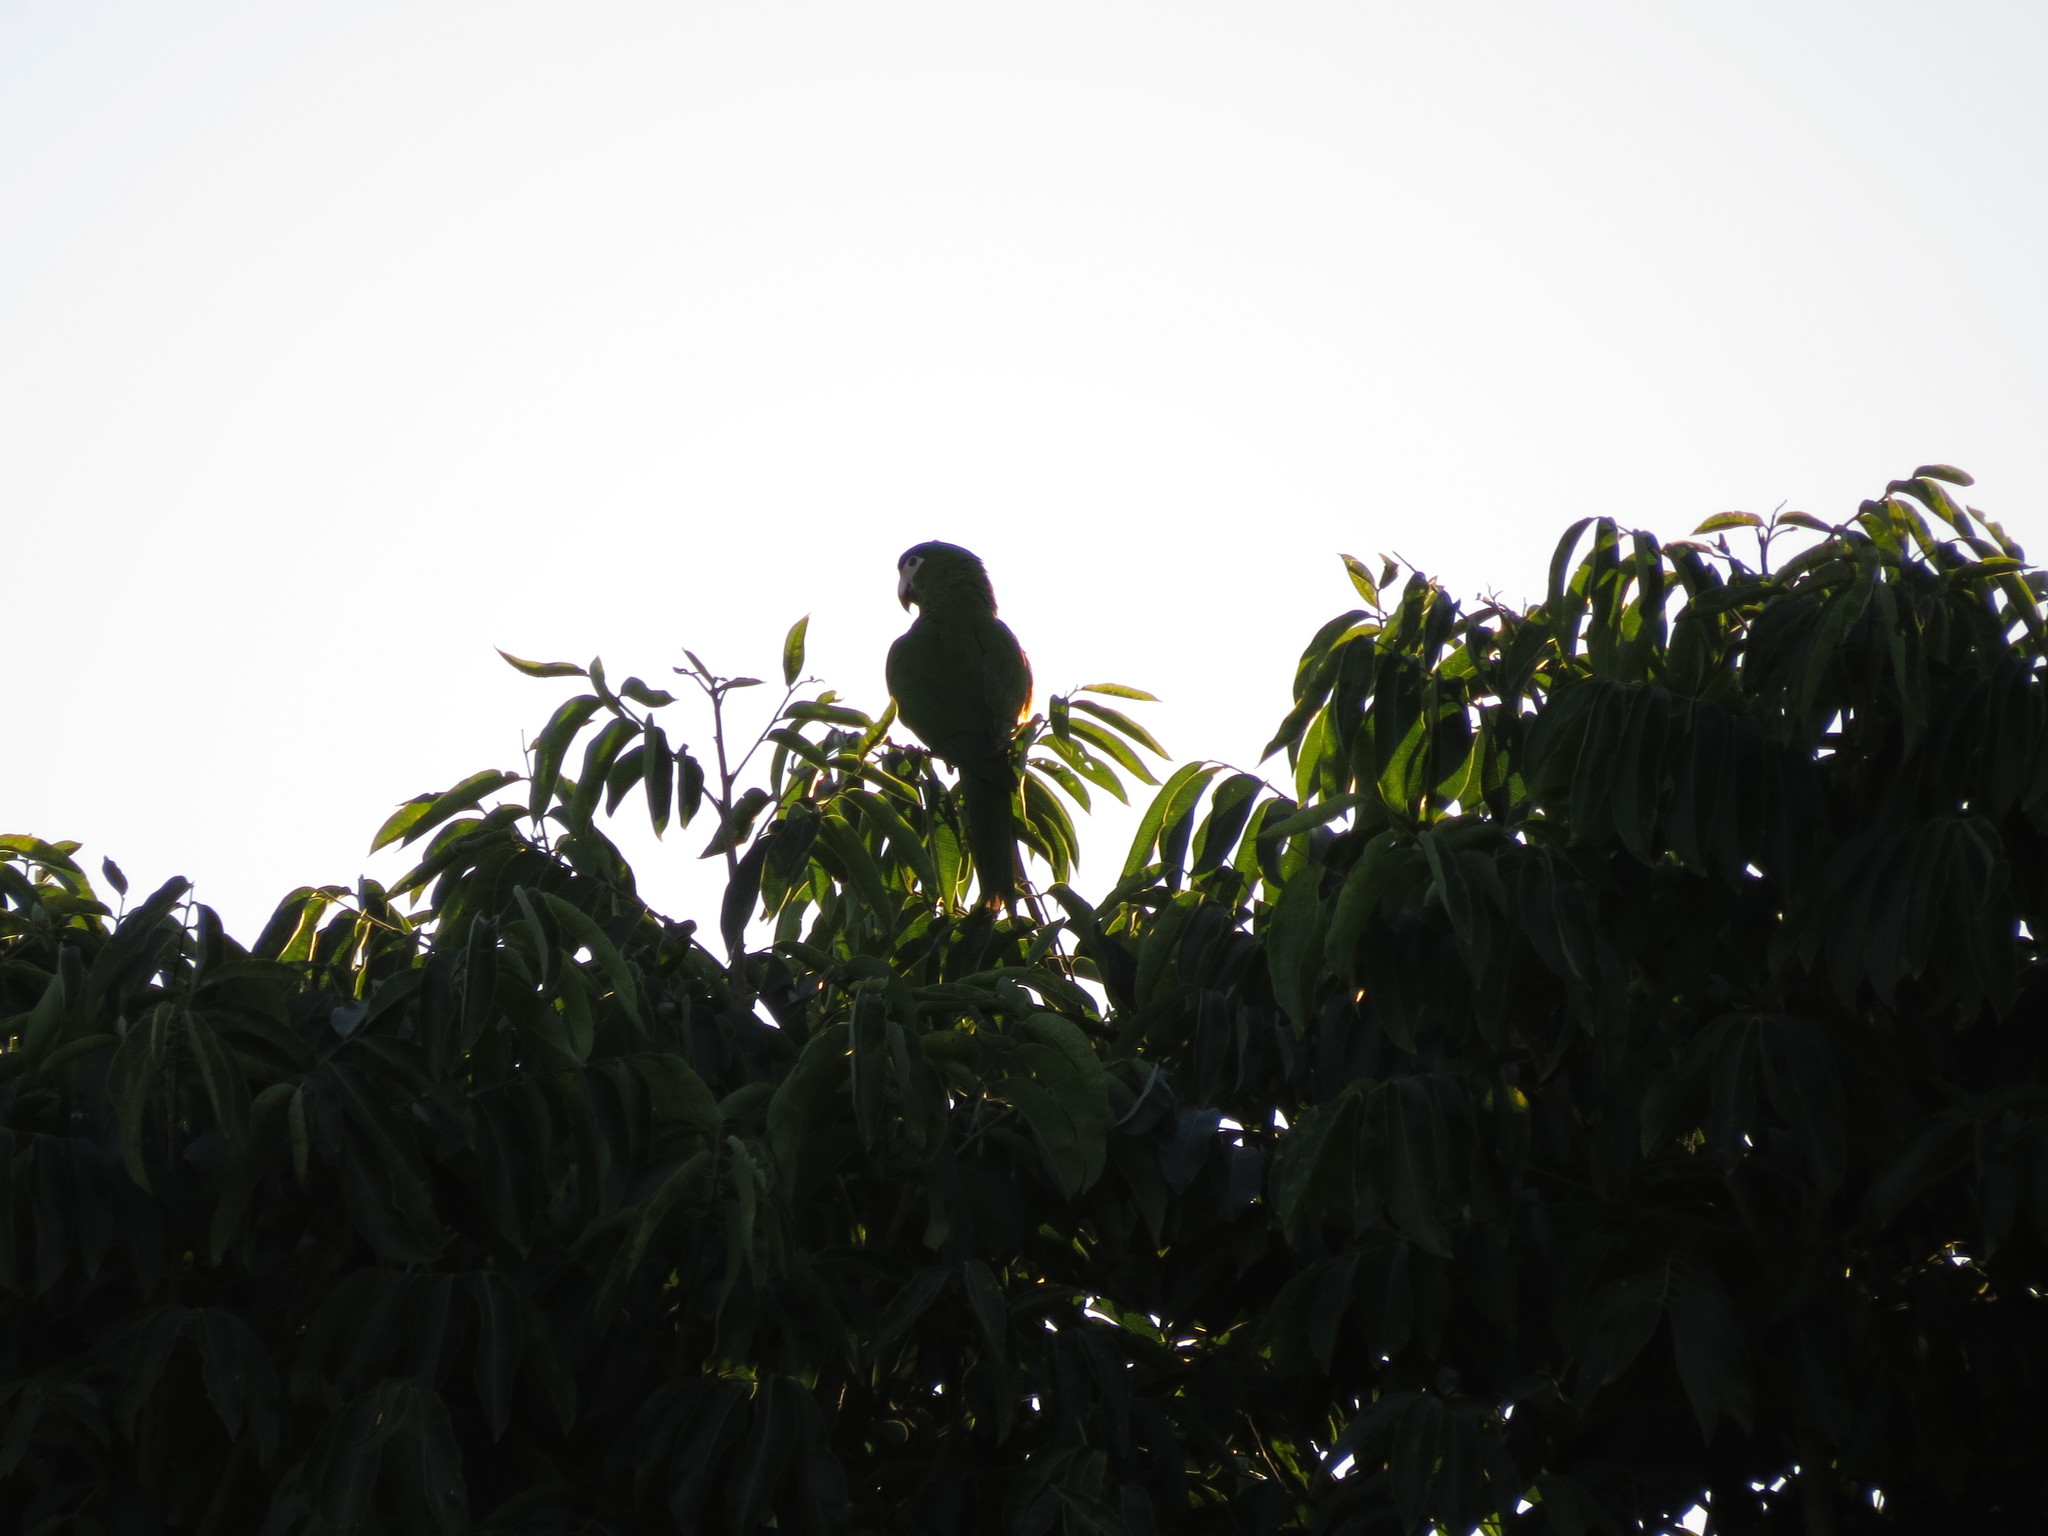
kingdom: Animalia
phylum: Chordata
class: Aves
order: Psittaciformes
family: Psittacidae
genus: Diopsittaca
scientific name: Diopsittaca nobilis
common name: Red-shouldered macaw
